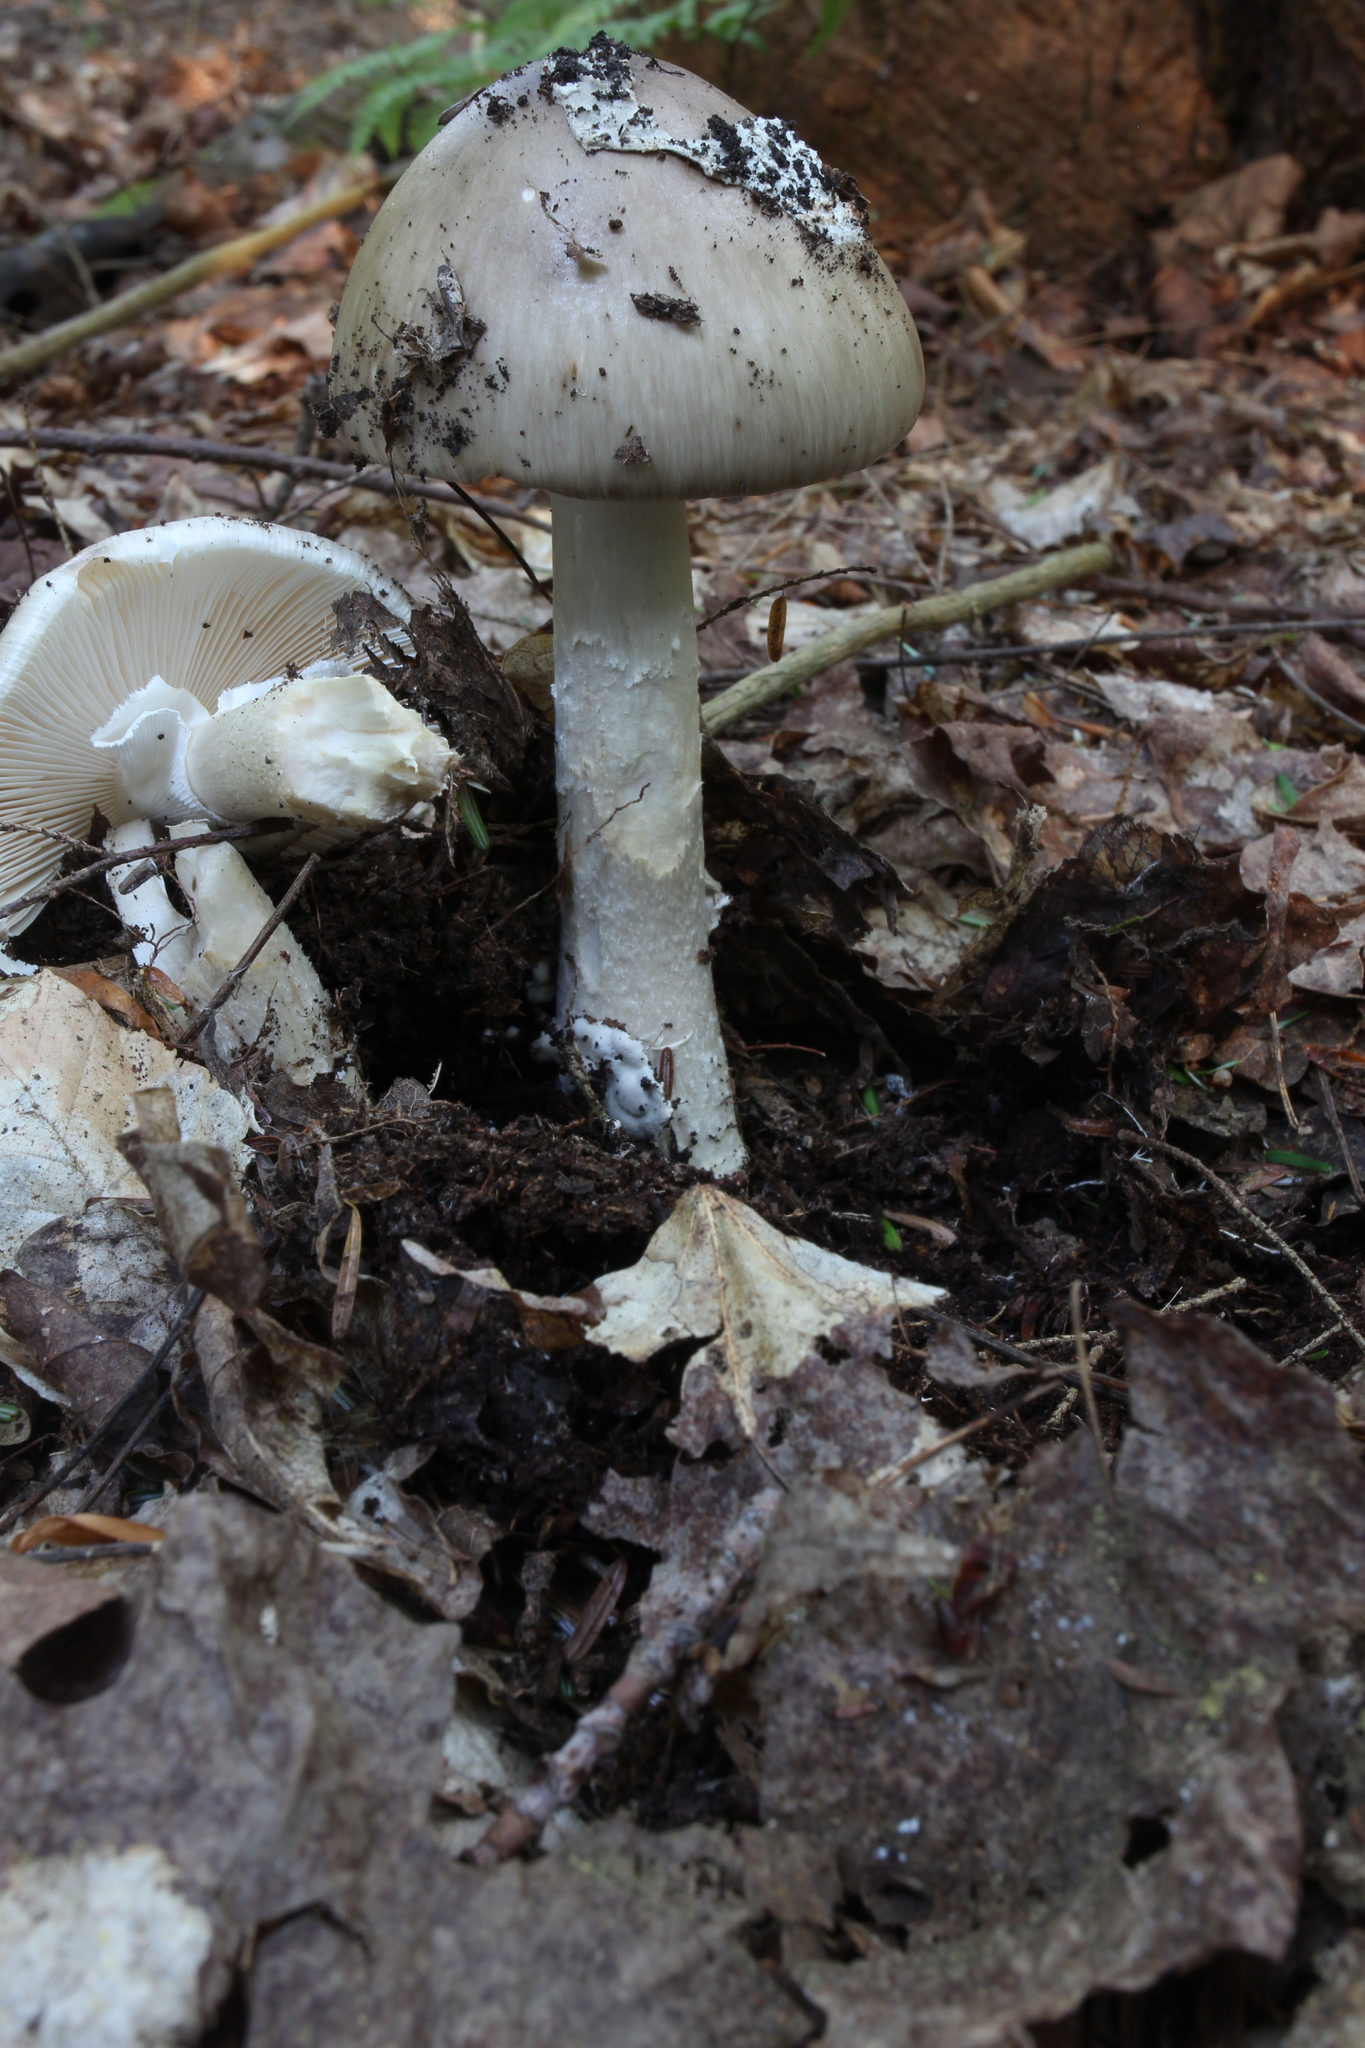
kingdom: Fungi
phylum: Basidiomycota
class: Agaricomycetes
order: Agaricales
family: Amanitaceae
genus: Amanita
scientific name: Amanita submaculata
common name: Ball gown amanita
